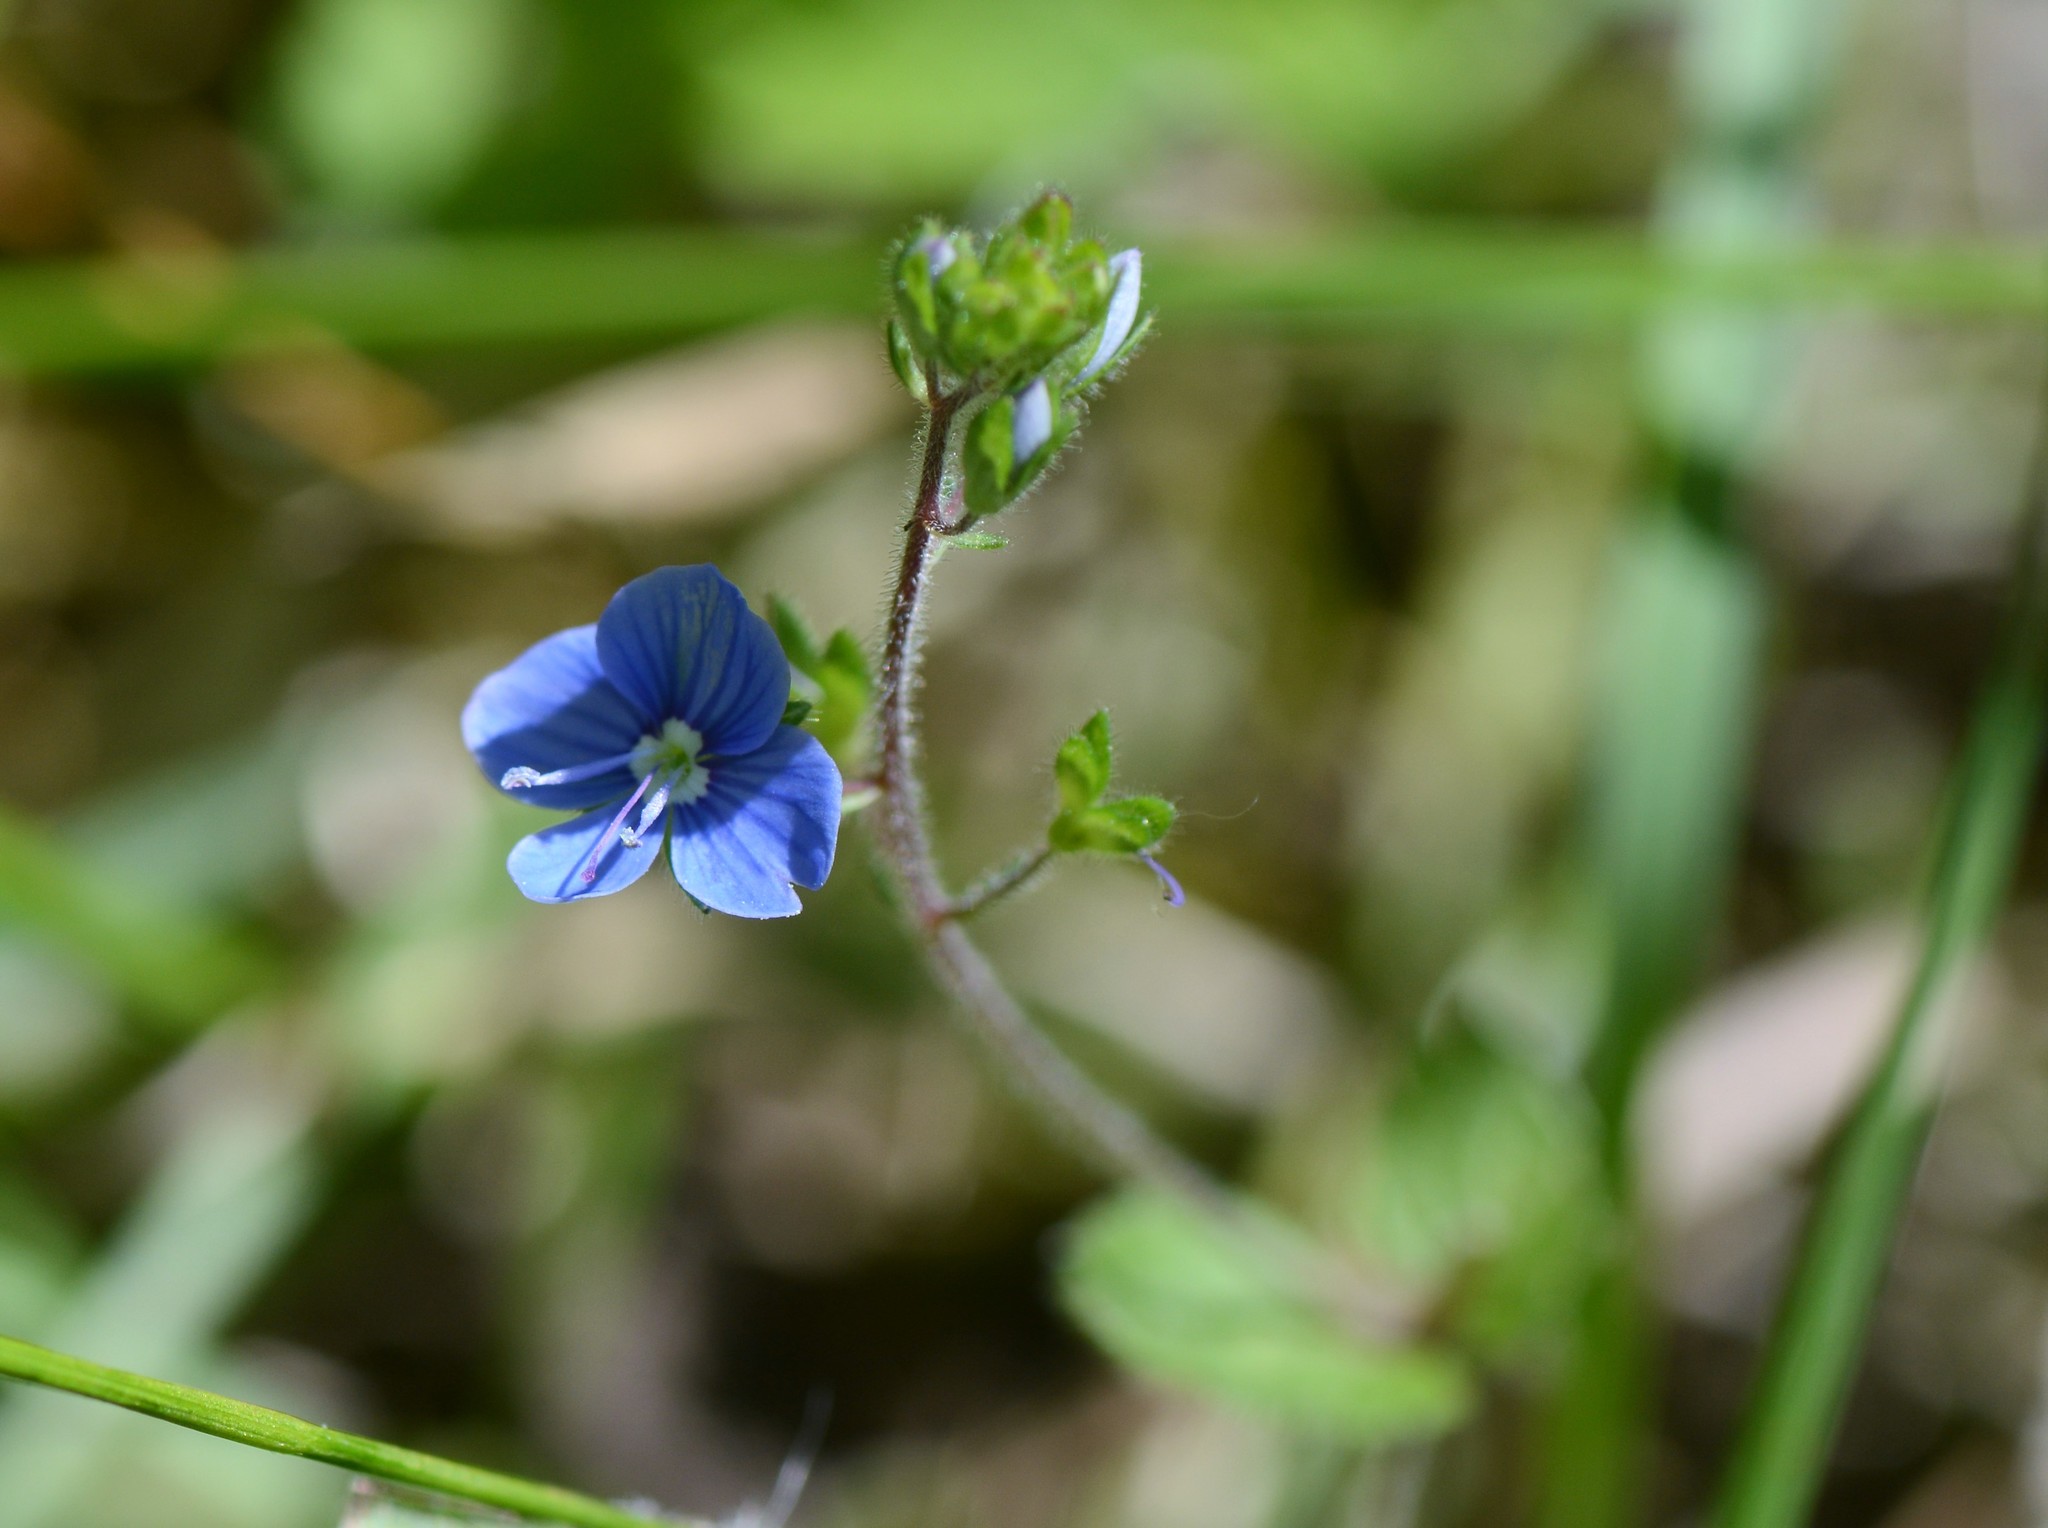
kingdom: Plantae
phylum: Tracheophyta
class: Magnoliopsida
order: Lamiales
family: Plantaginaceae
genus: Veronica
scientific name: Veronica chamaedrys
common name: Germander speedwell
